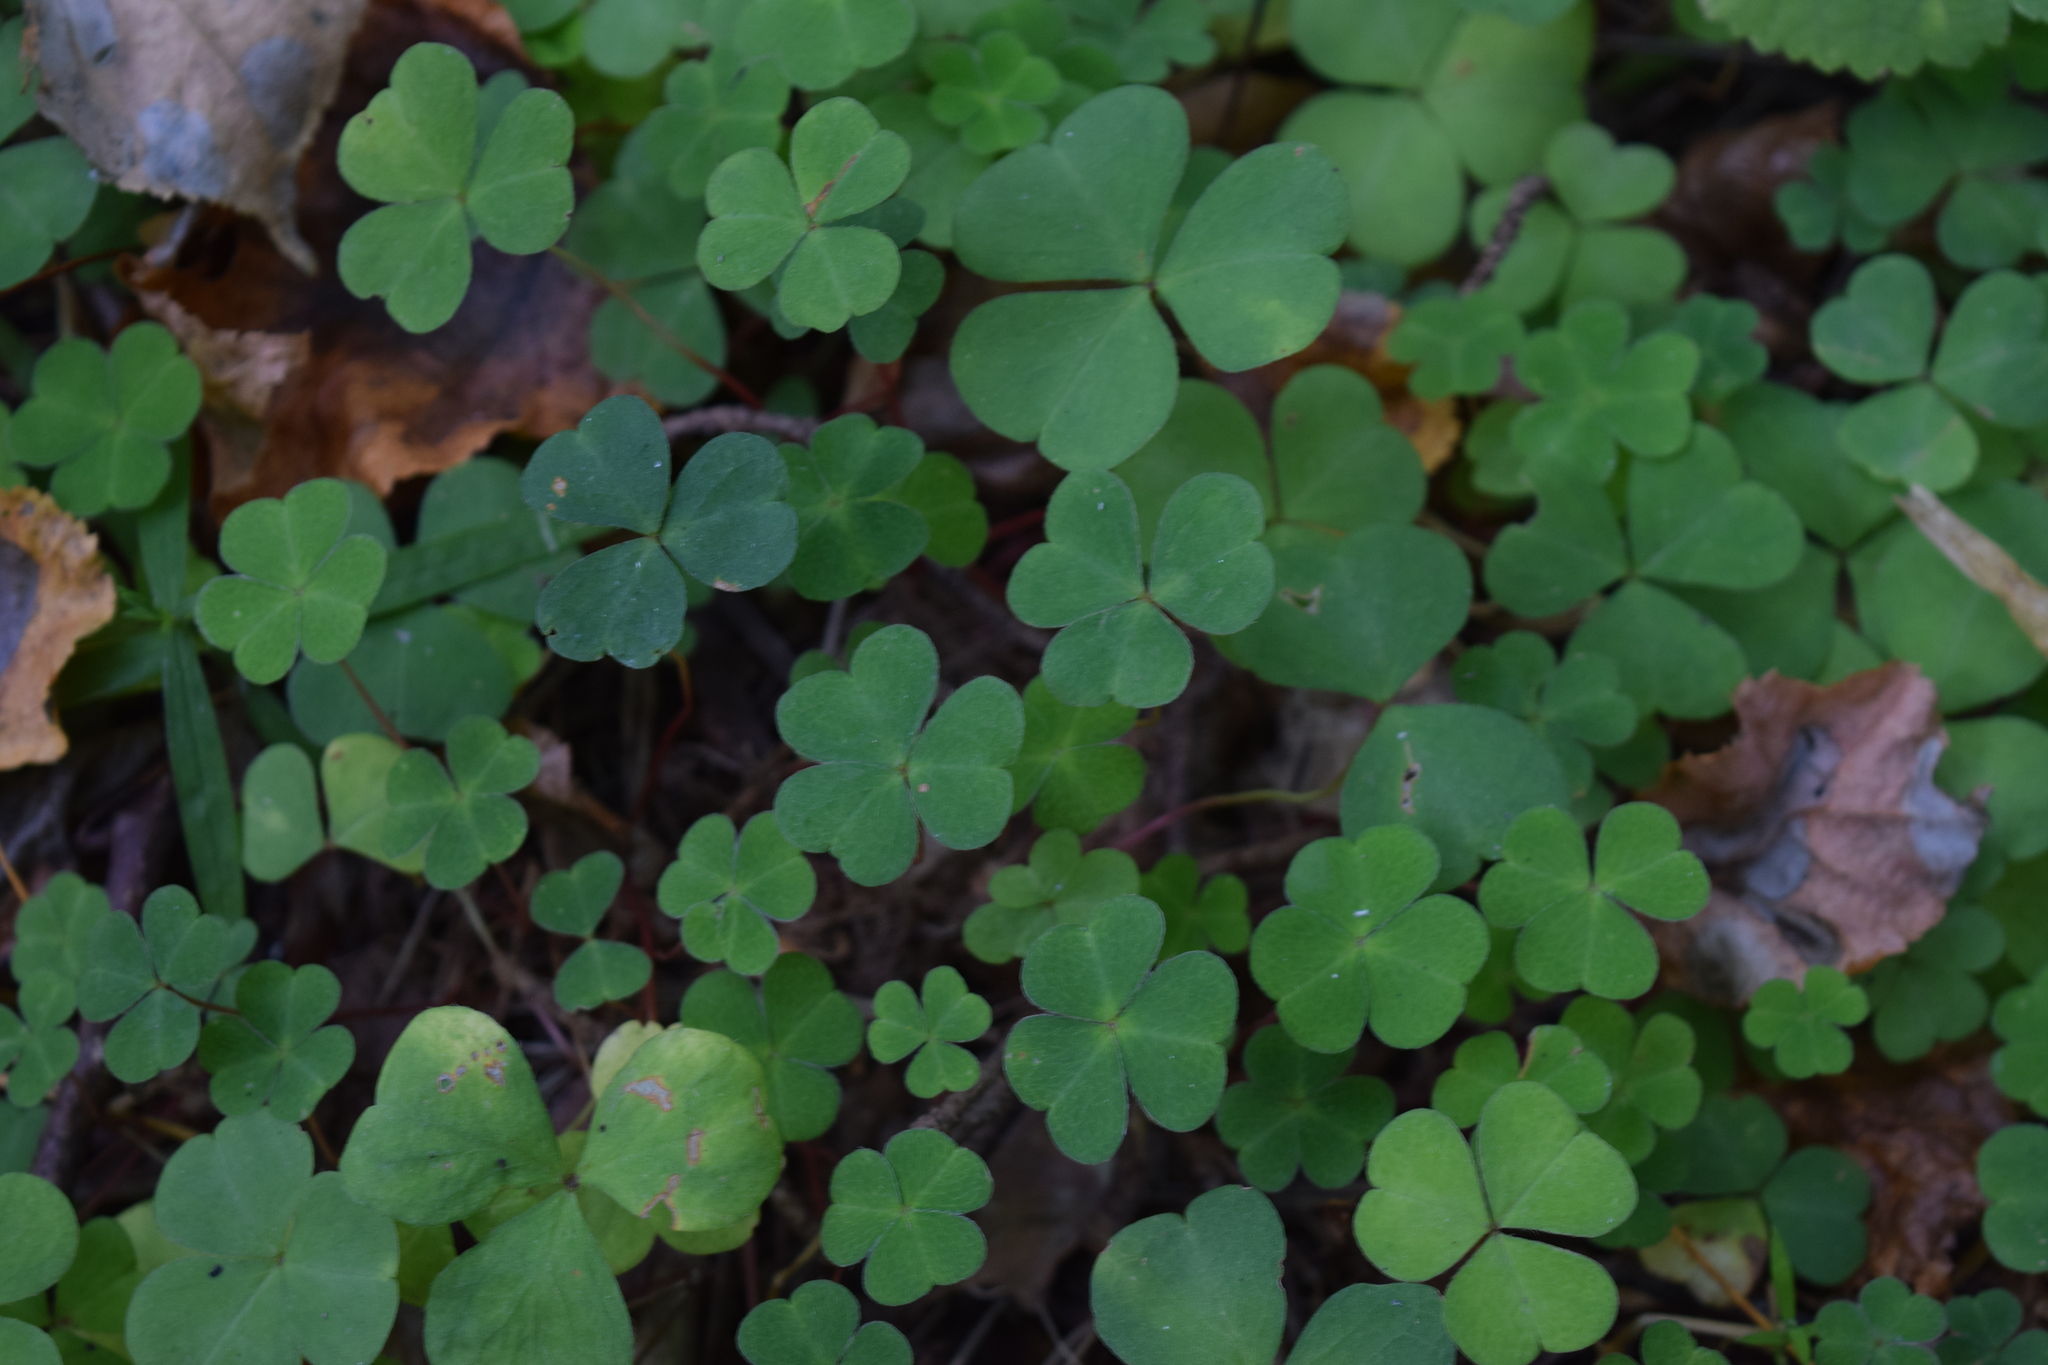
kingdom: Plantae
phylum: Tracheophyta
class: Magnoliopsida
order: Oxalidales
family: Oxalidaceae
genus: Oxalis
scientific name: Oxalis acetosella
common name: Wood-sorrel
